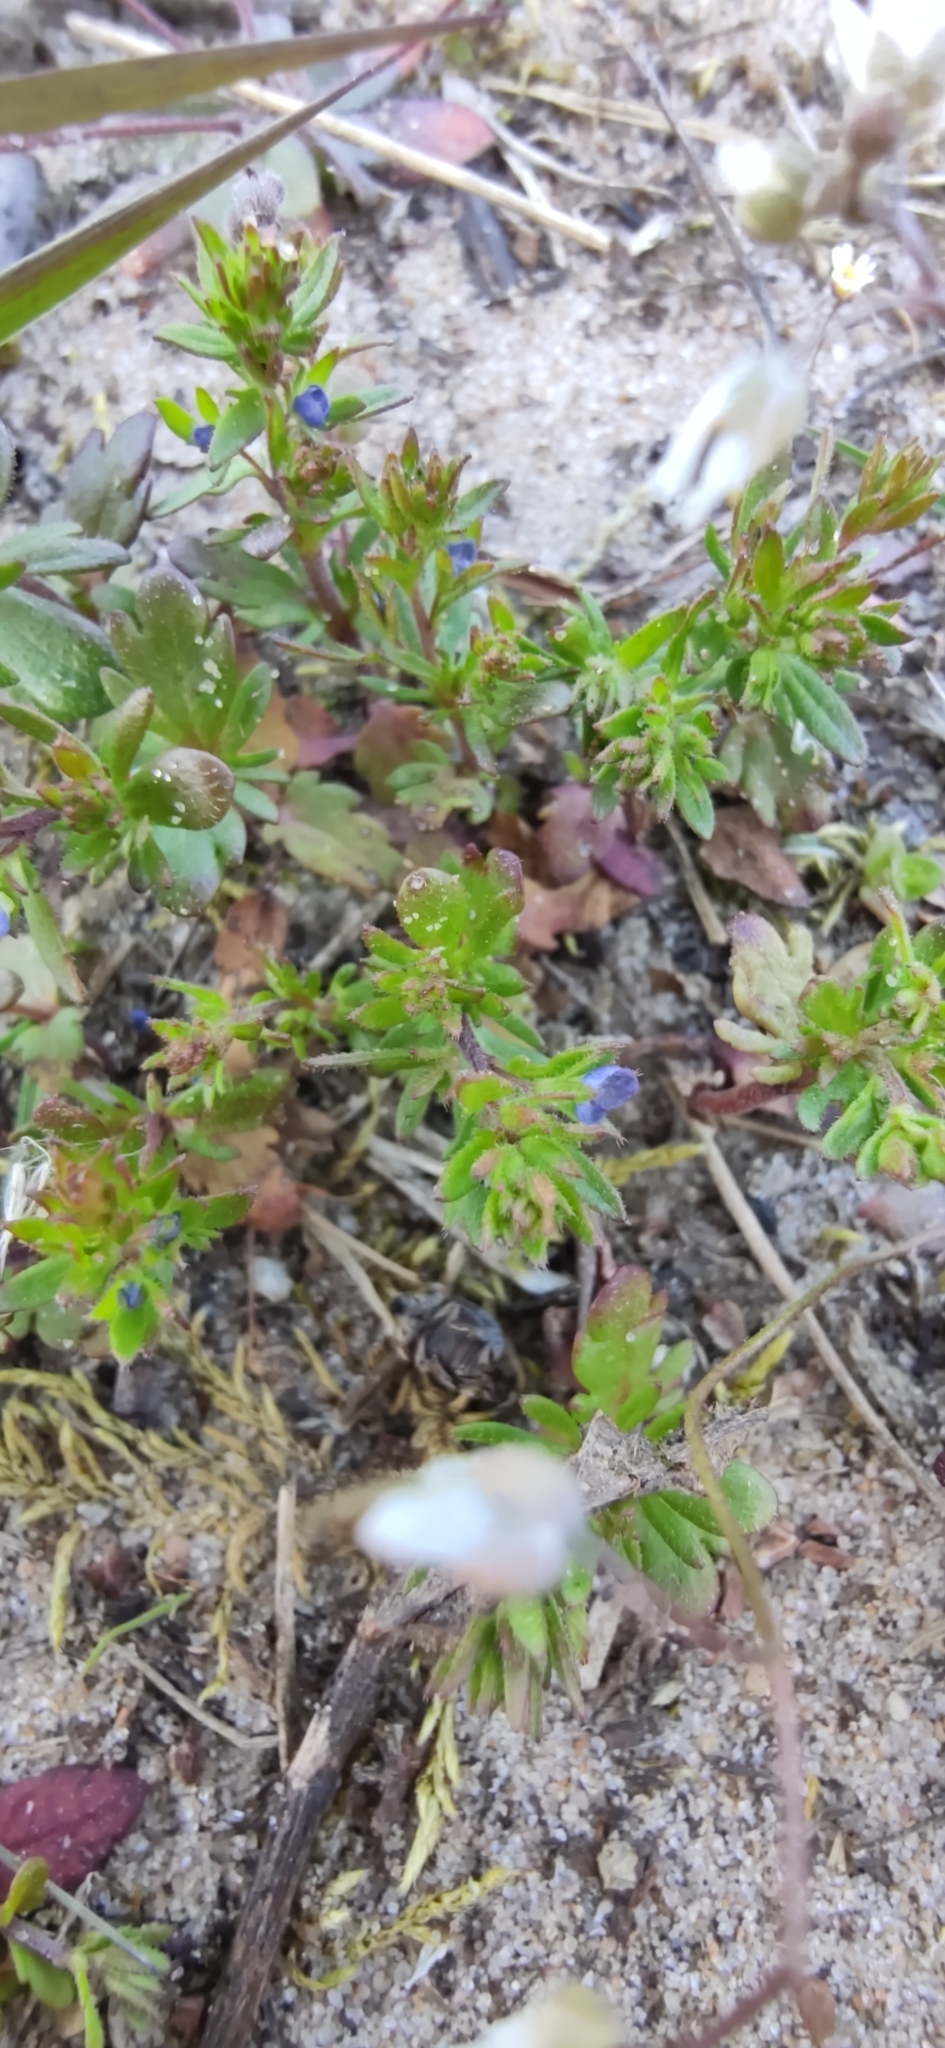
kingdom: Plantae
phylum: Tracheophyta
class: Magnoliopsida
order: Lamiales
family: Plantaginaceae
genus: Veronica
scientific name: Veronica verna
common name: Spring speedwell
